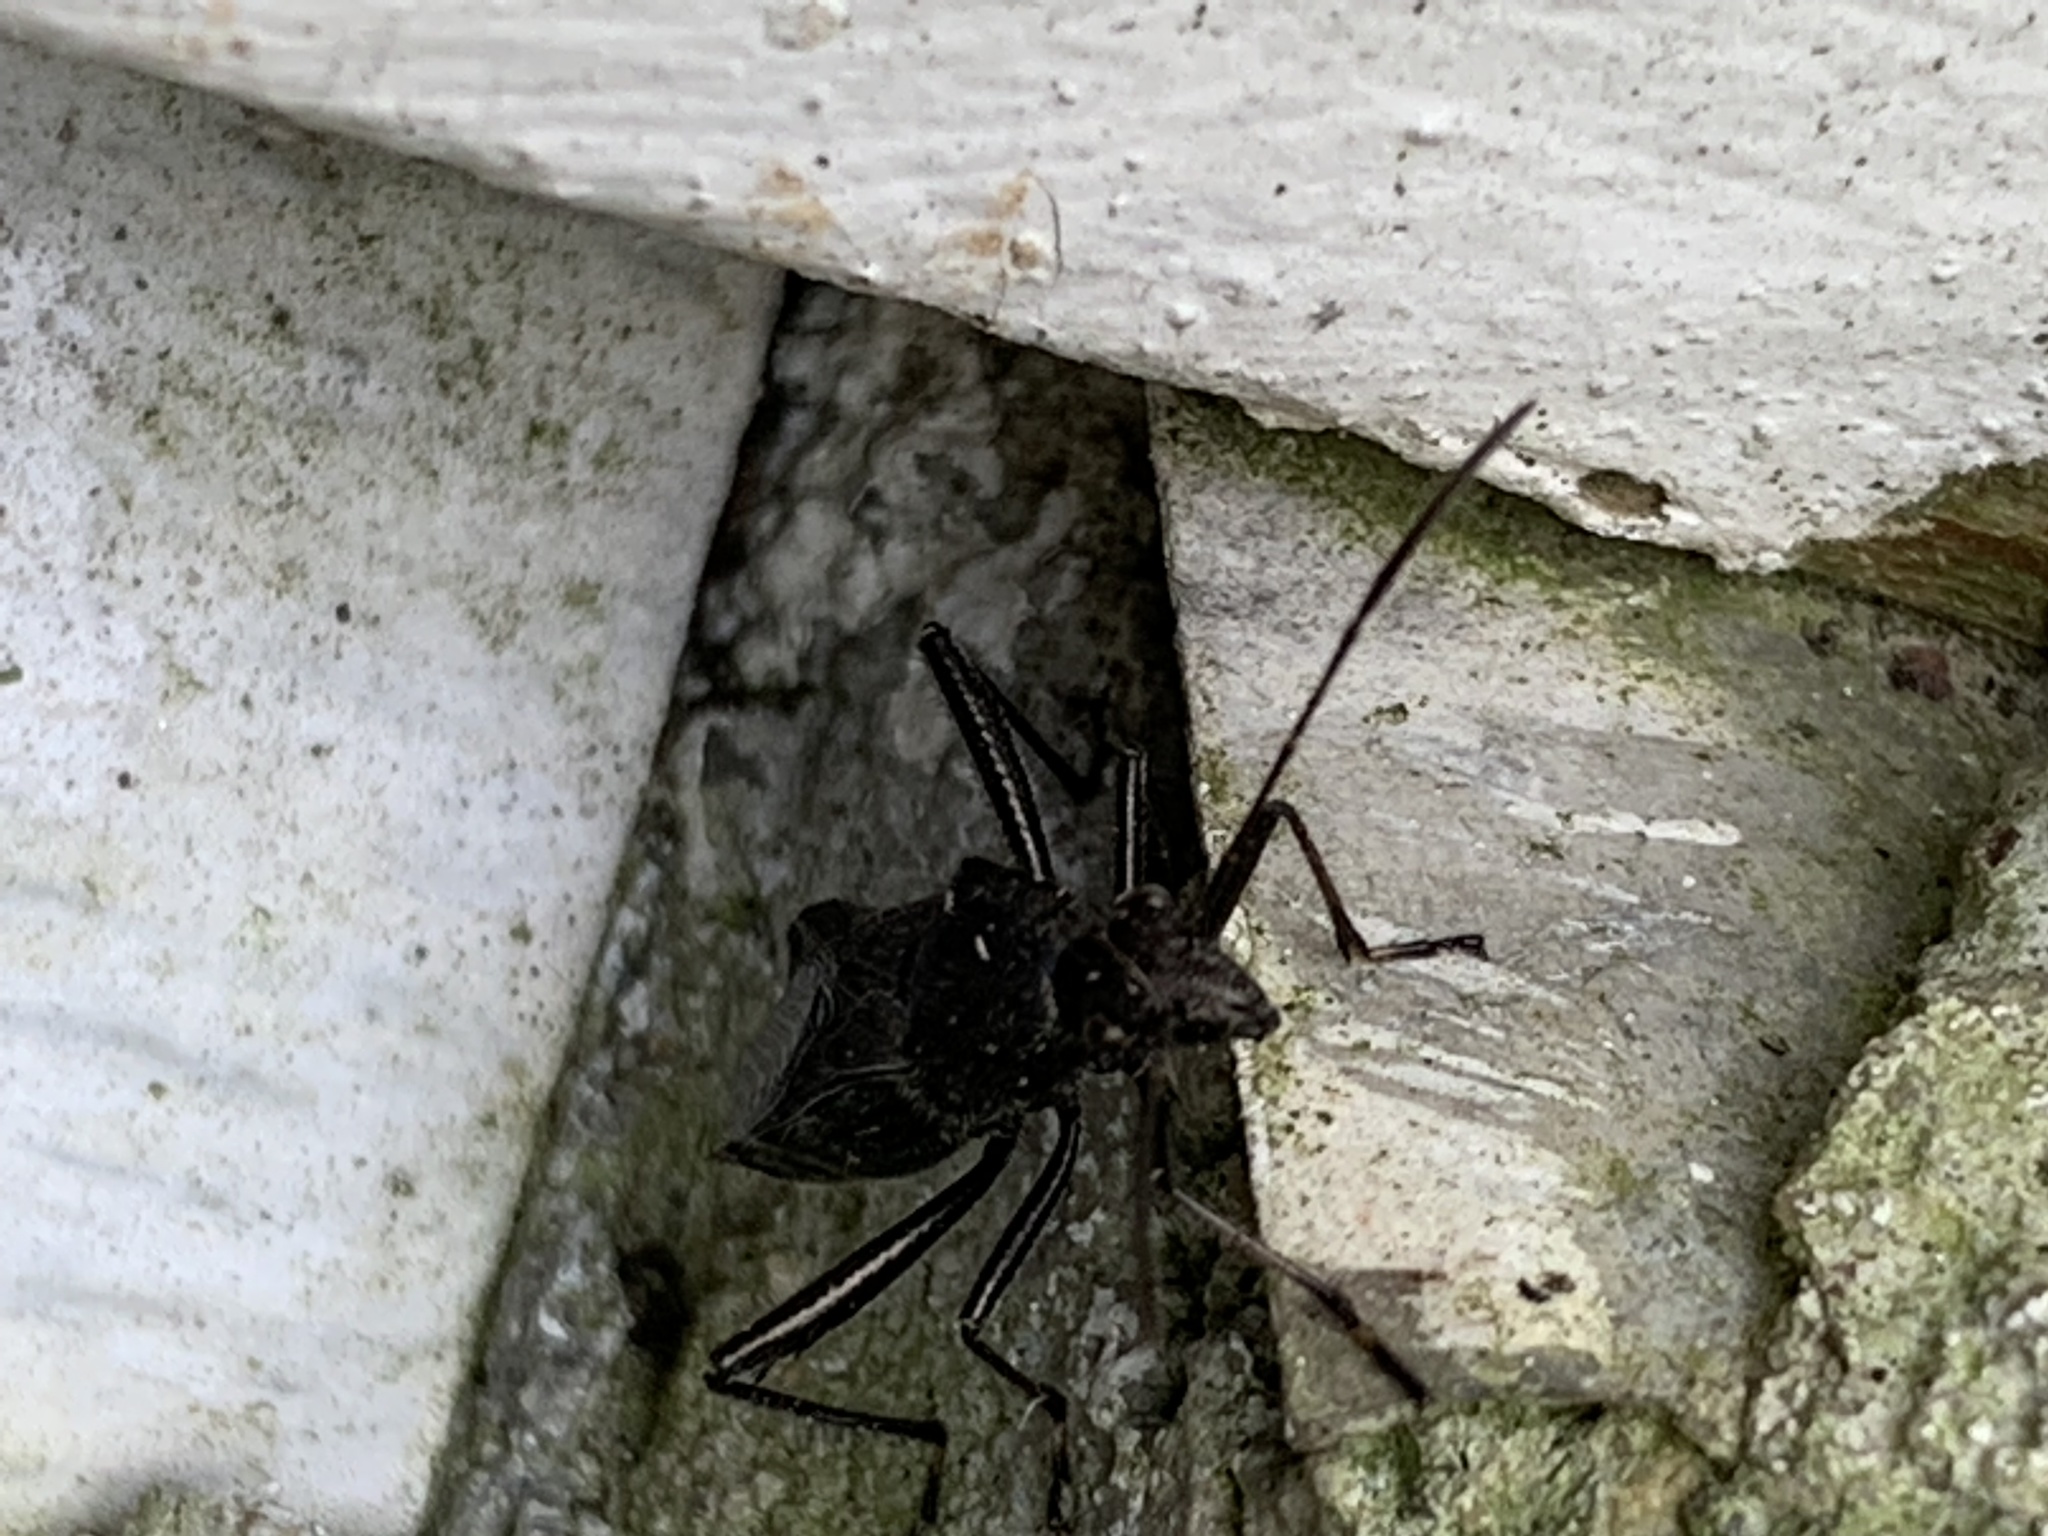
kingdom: Animalia
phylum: Arthropoda
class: Insecta
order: Hemiptera
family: Alydidae
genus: Alydus
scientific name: Alydus eurinus
